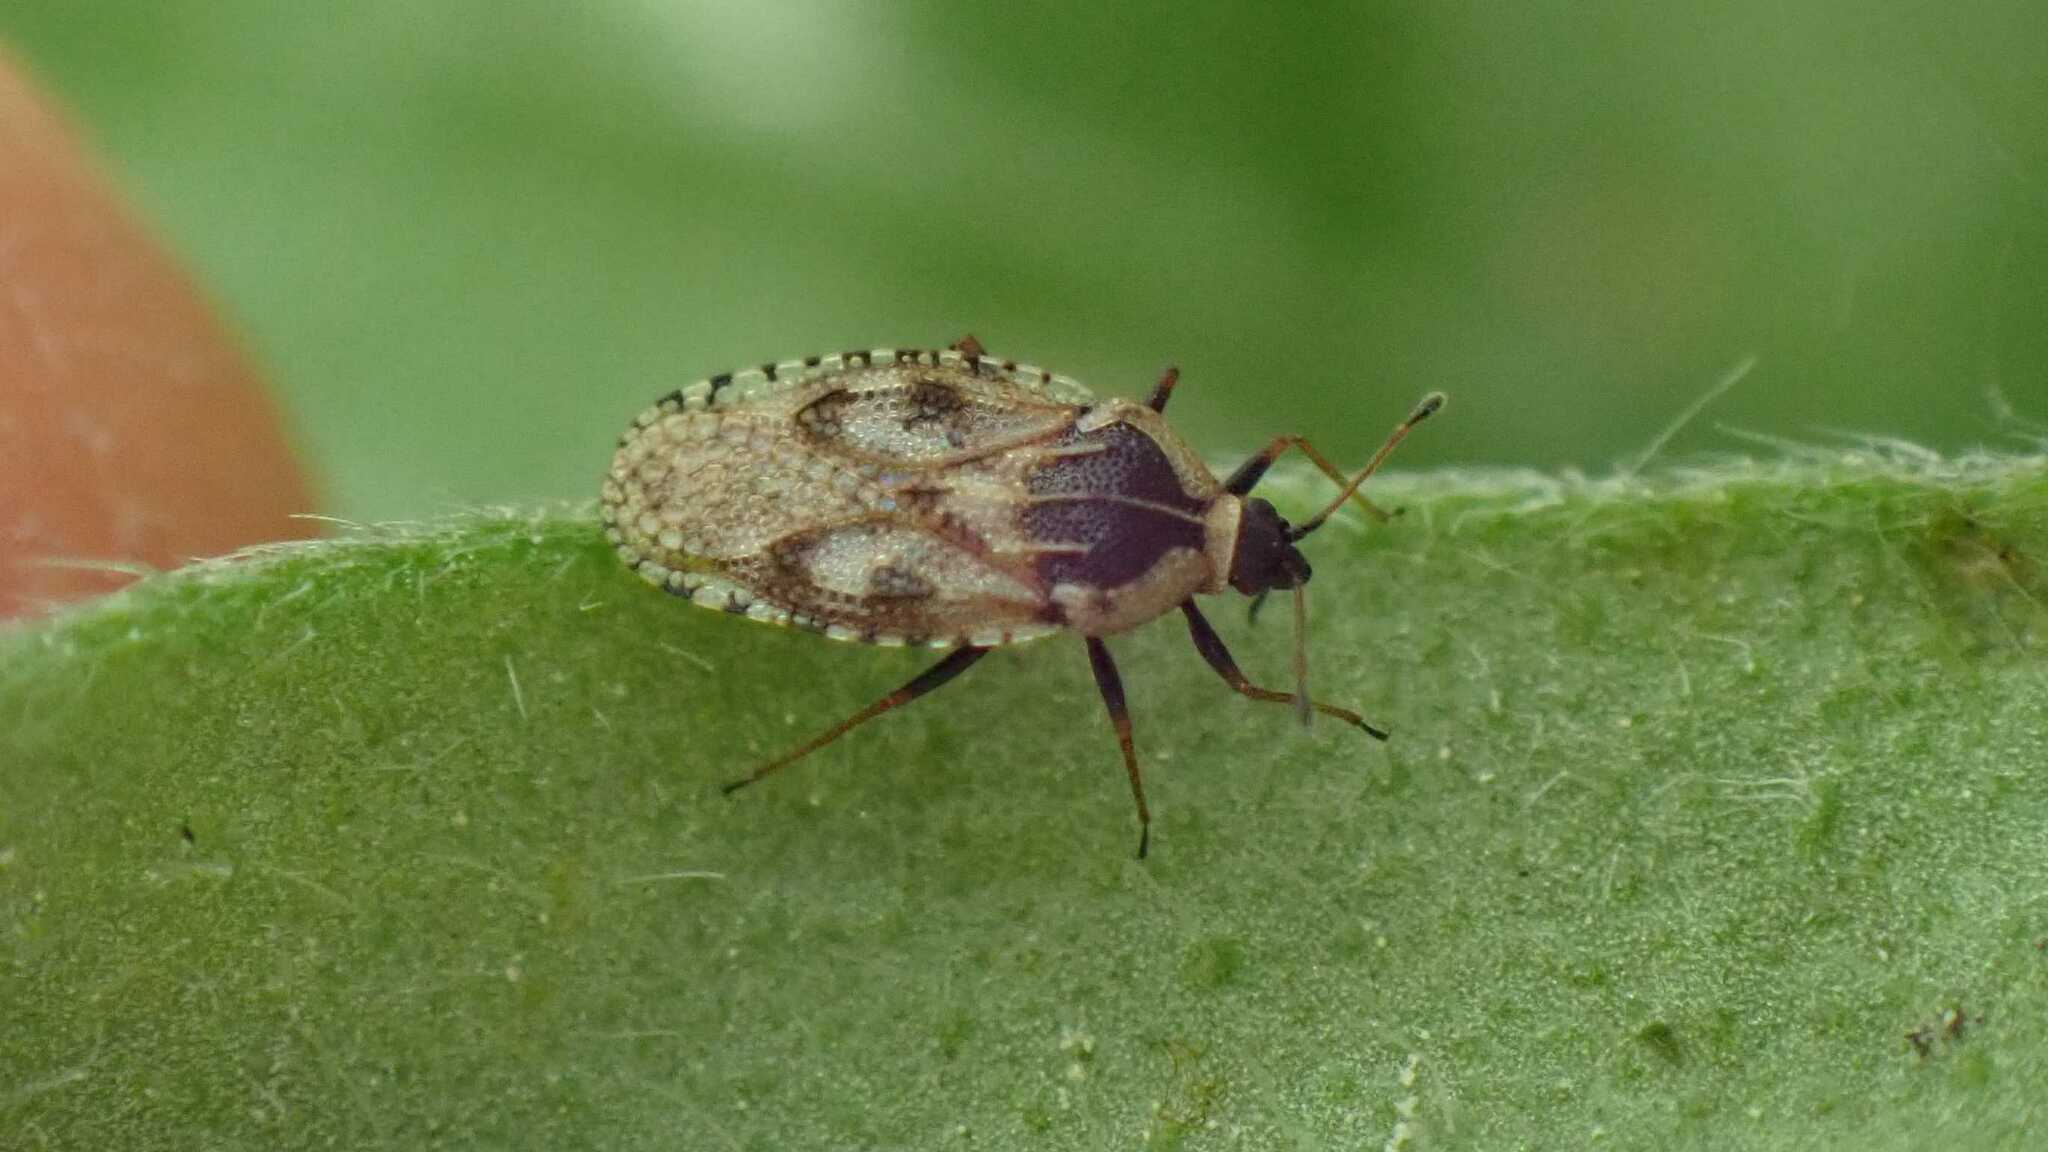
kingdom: Animalia
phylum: Arthropoda
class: Insecta
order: Hemiptera
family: Tingidae
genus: Dictyla
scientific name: Dictyla echii
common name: Lace bug
